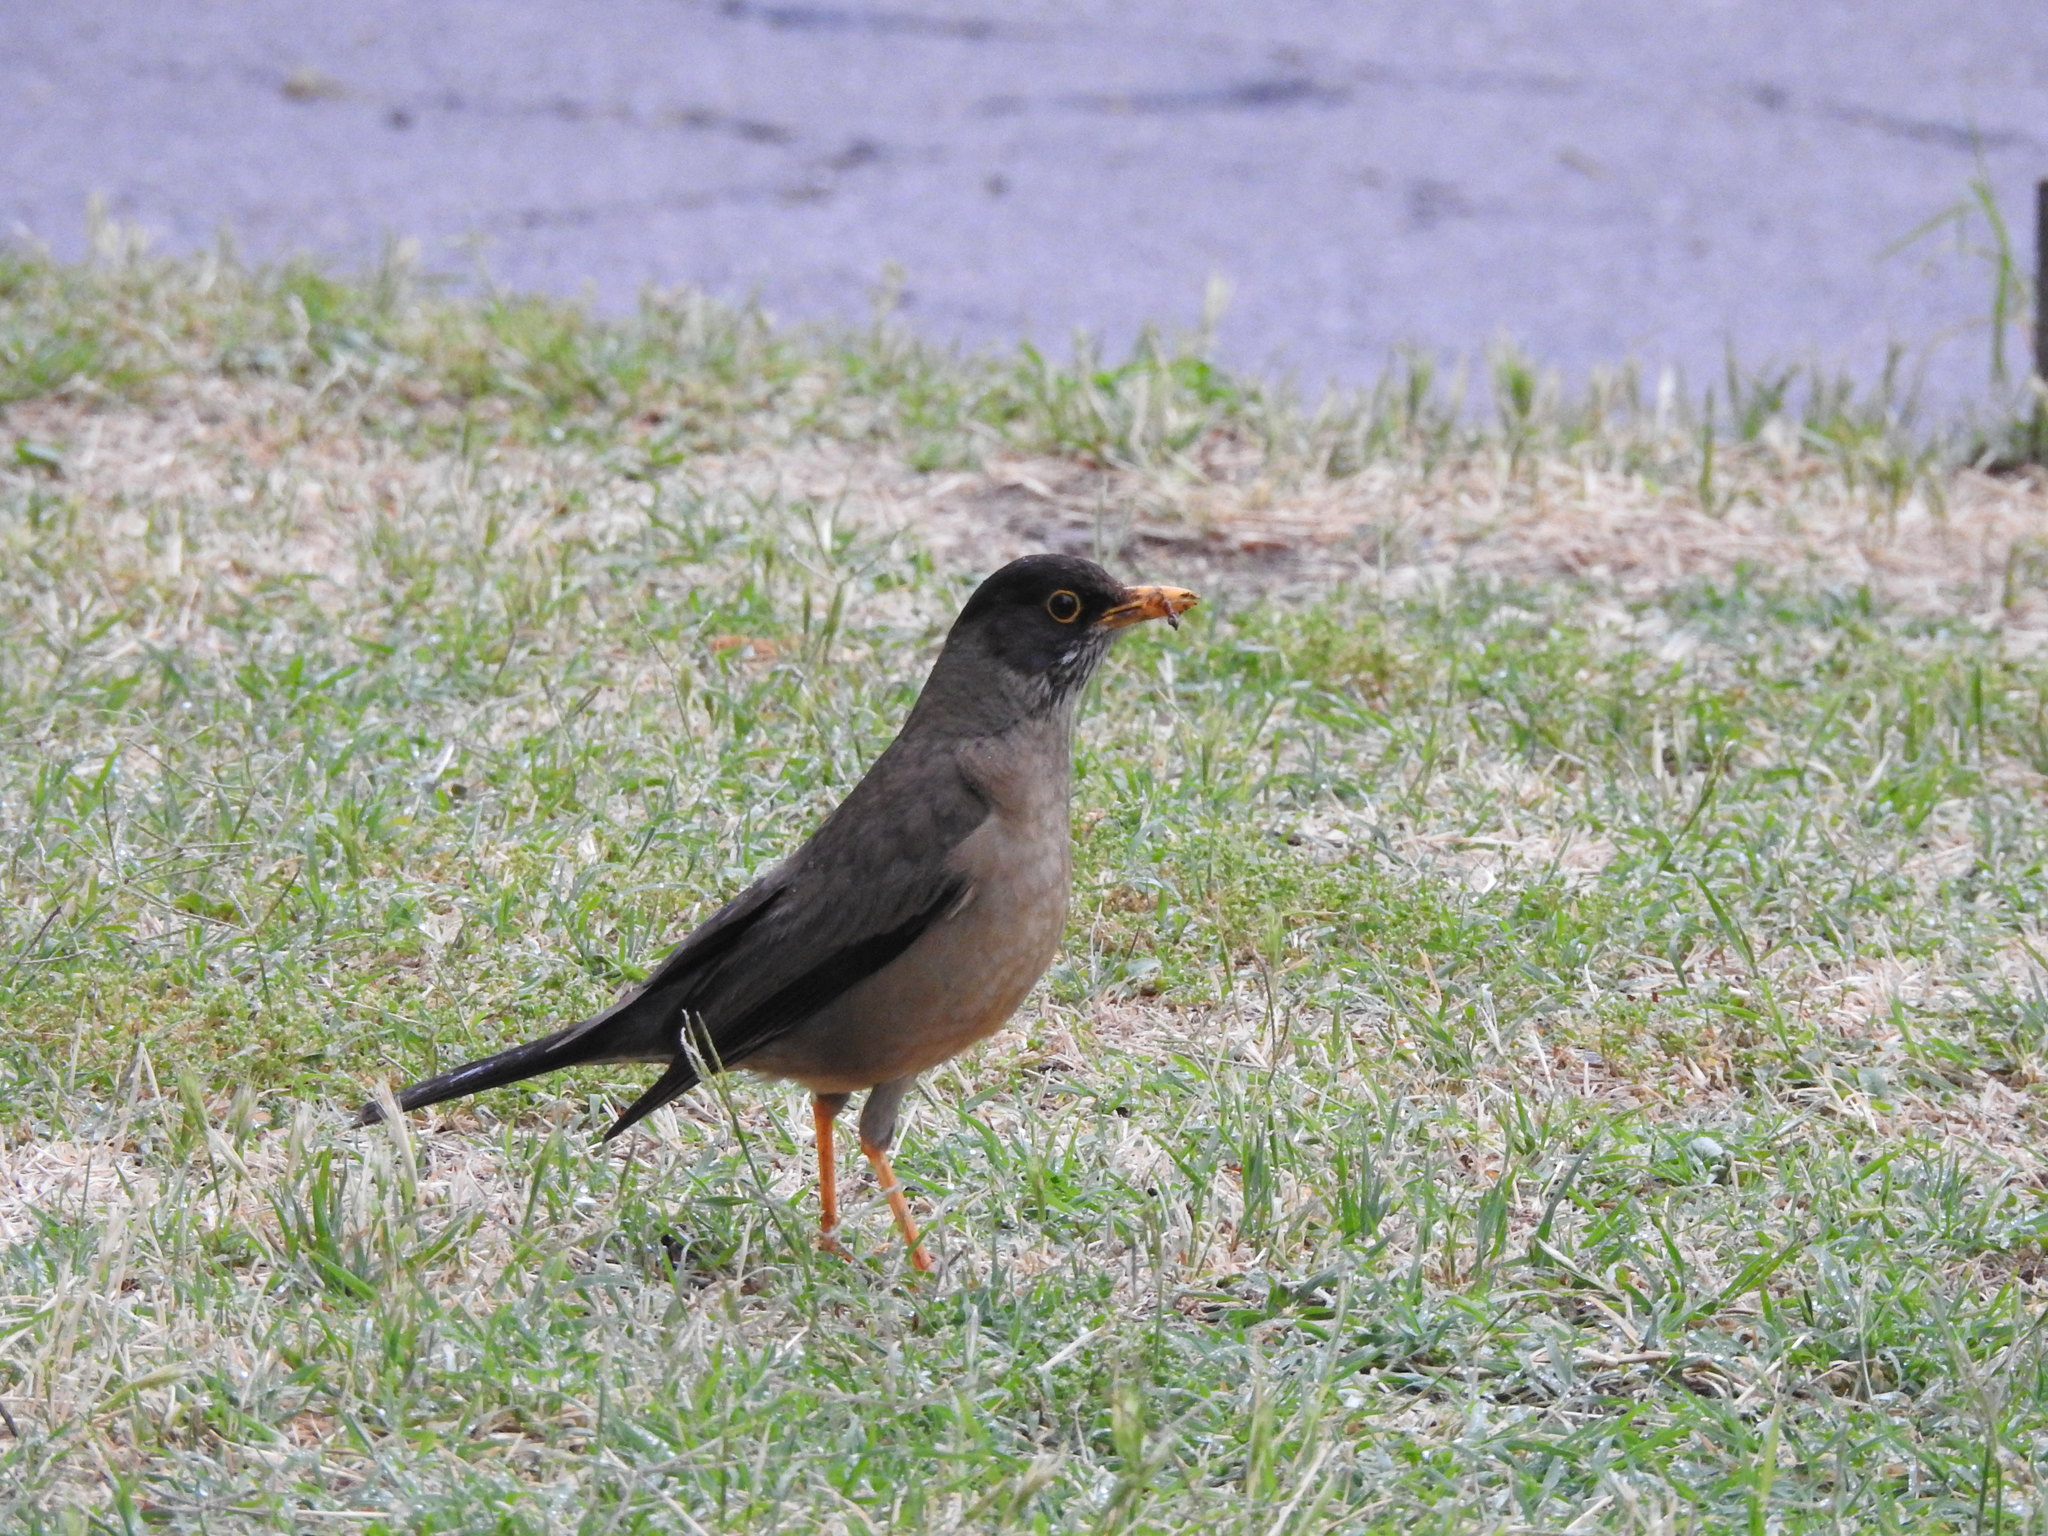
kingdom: Animalia
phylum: Chordata
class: Aves
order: Passeriformes
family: Turdidae
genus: Turdus
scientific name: Turdus falcklandii
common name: Austral thrush
